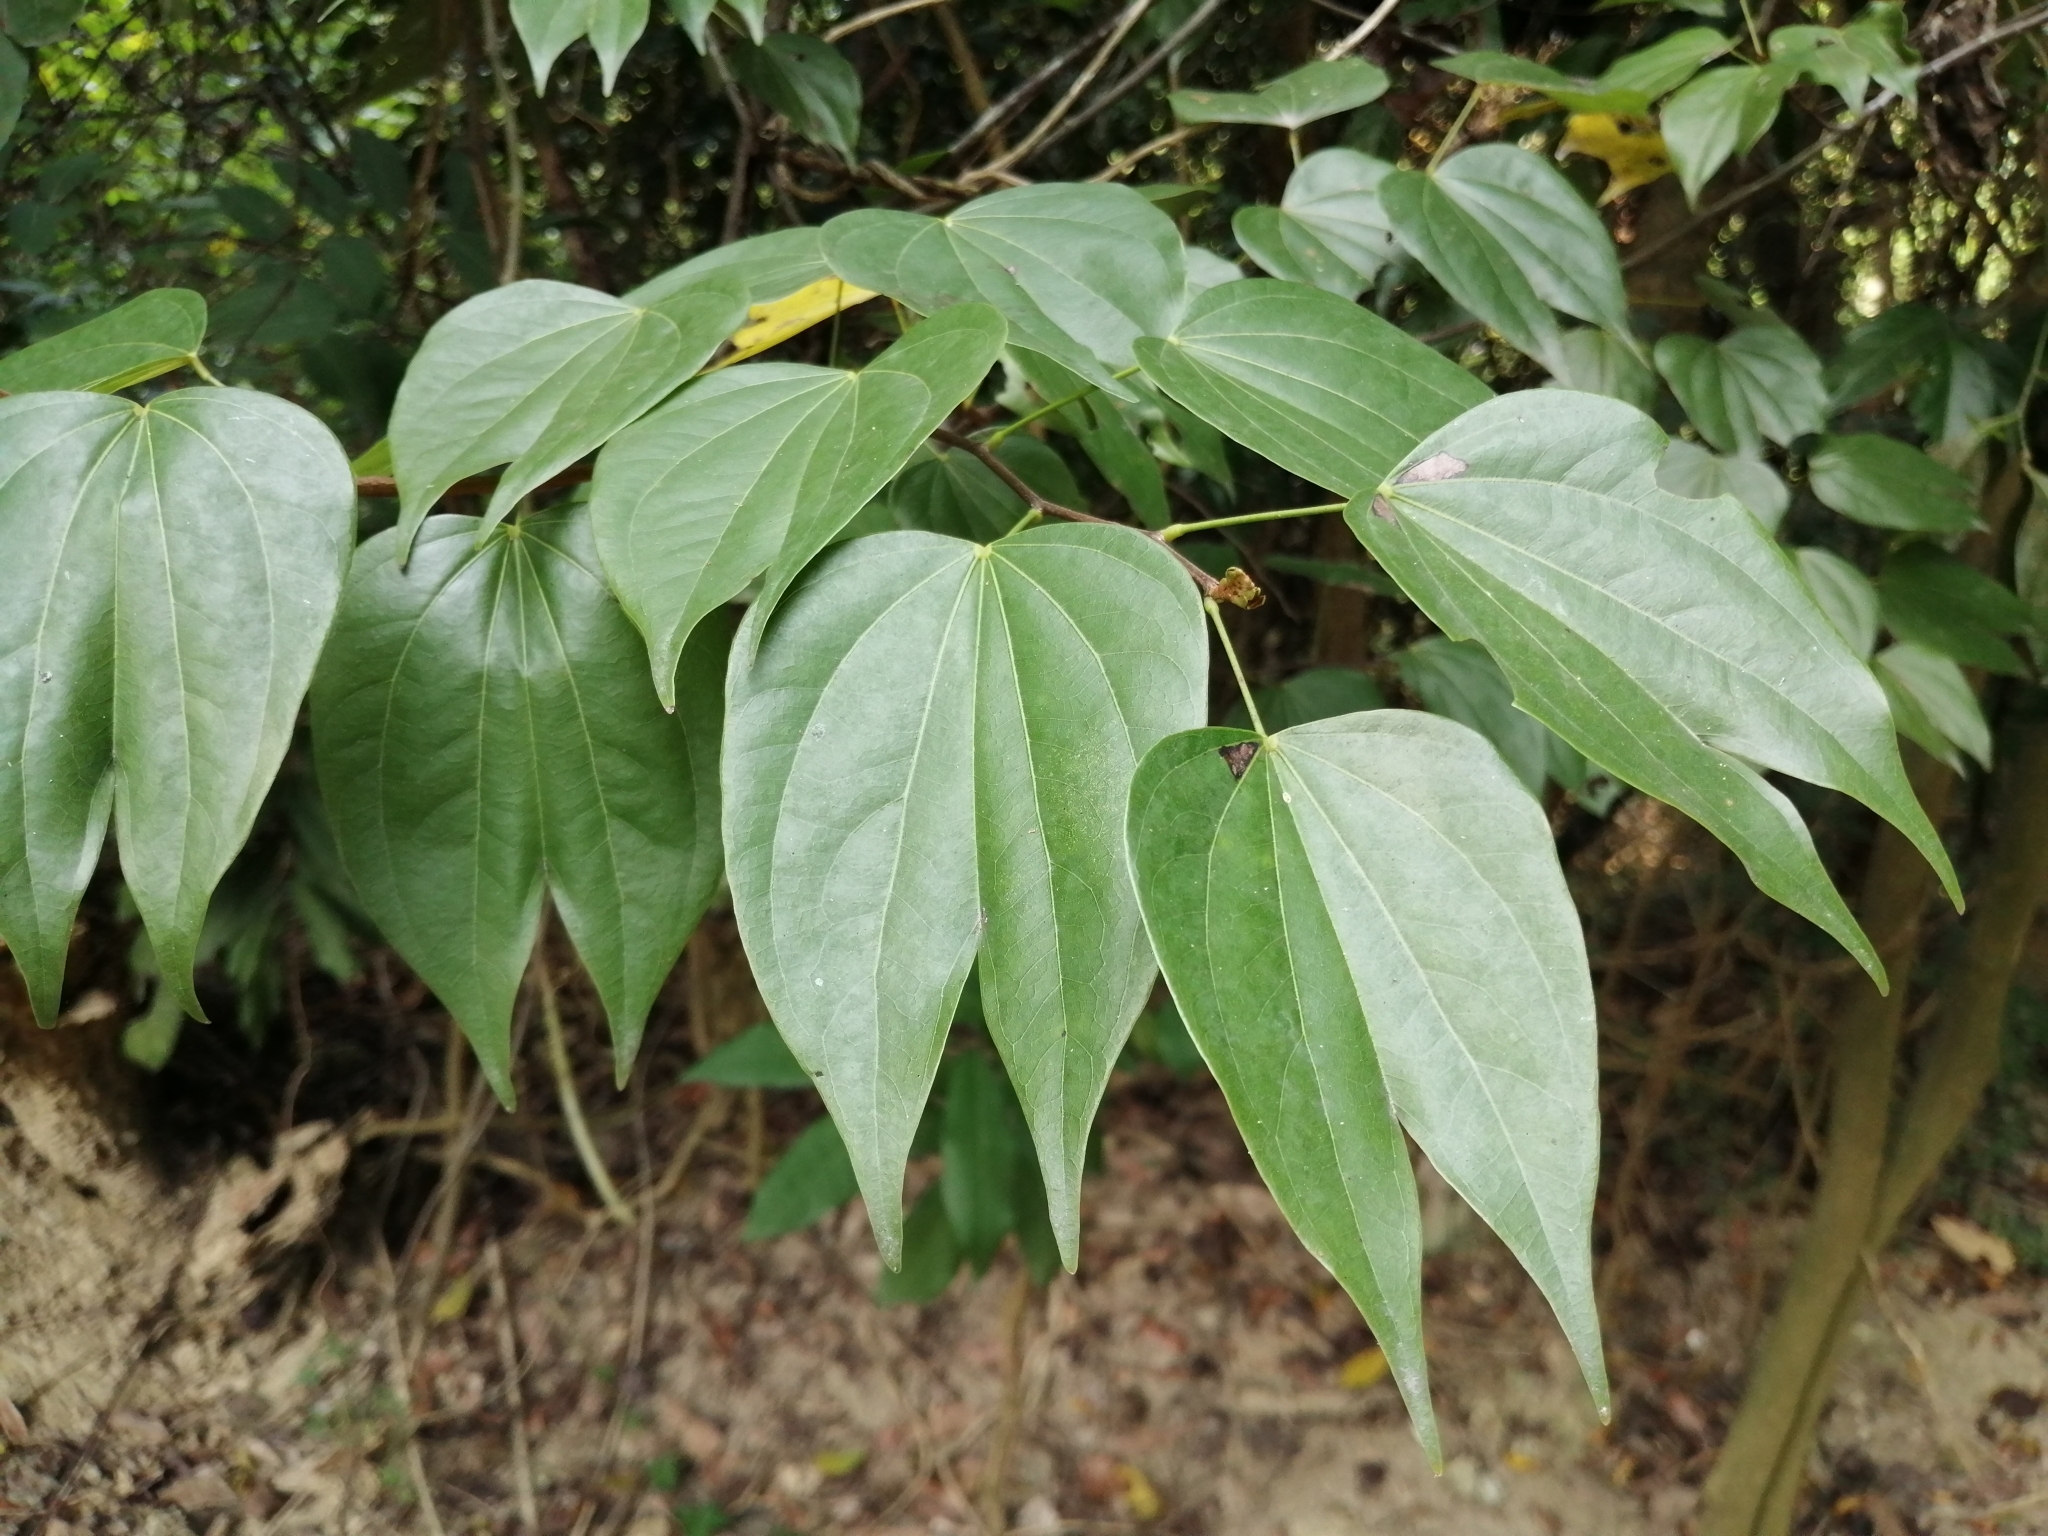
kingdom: Plantae
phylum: Tracheophyta
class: Magnoliopsida
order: Fabales
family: Fabaceae
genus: Phanera
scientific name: Phanera championii
